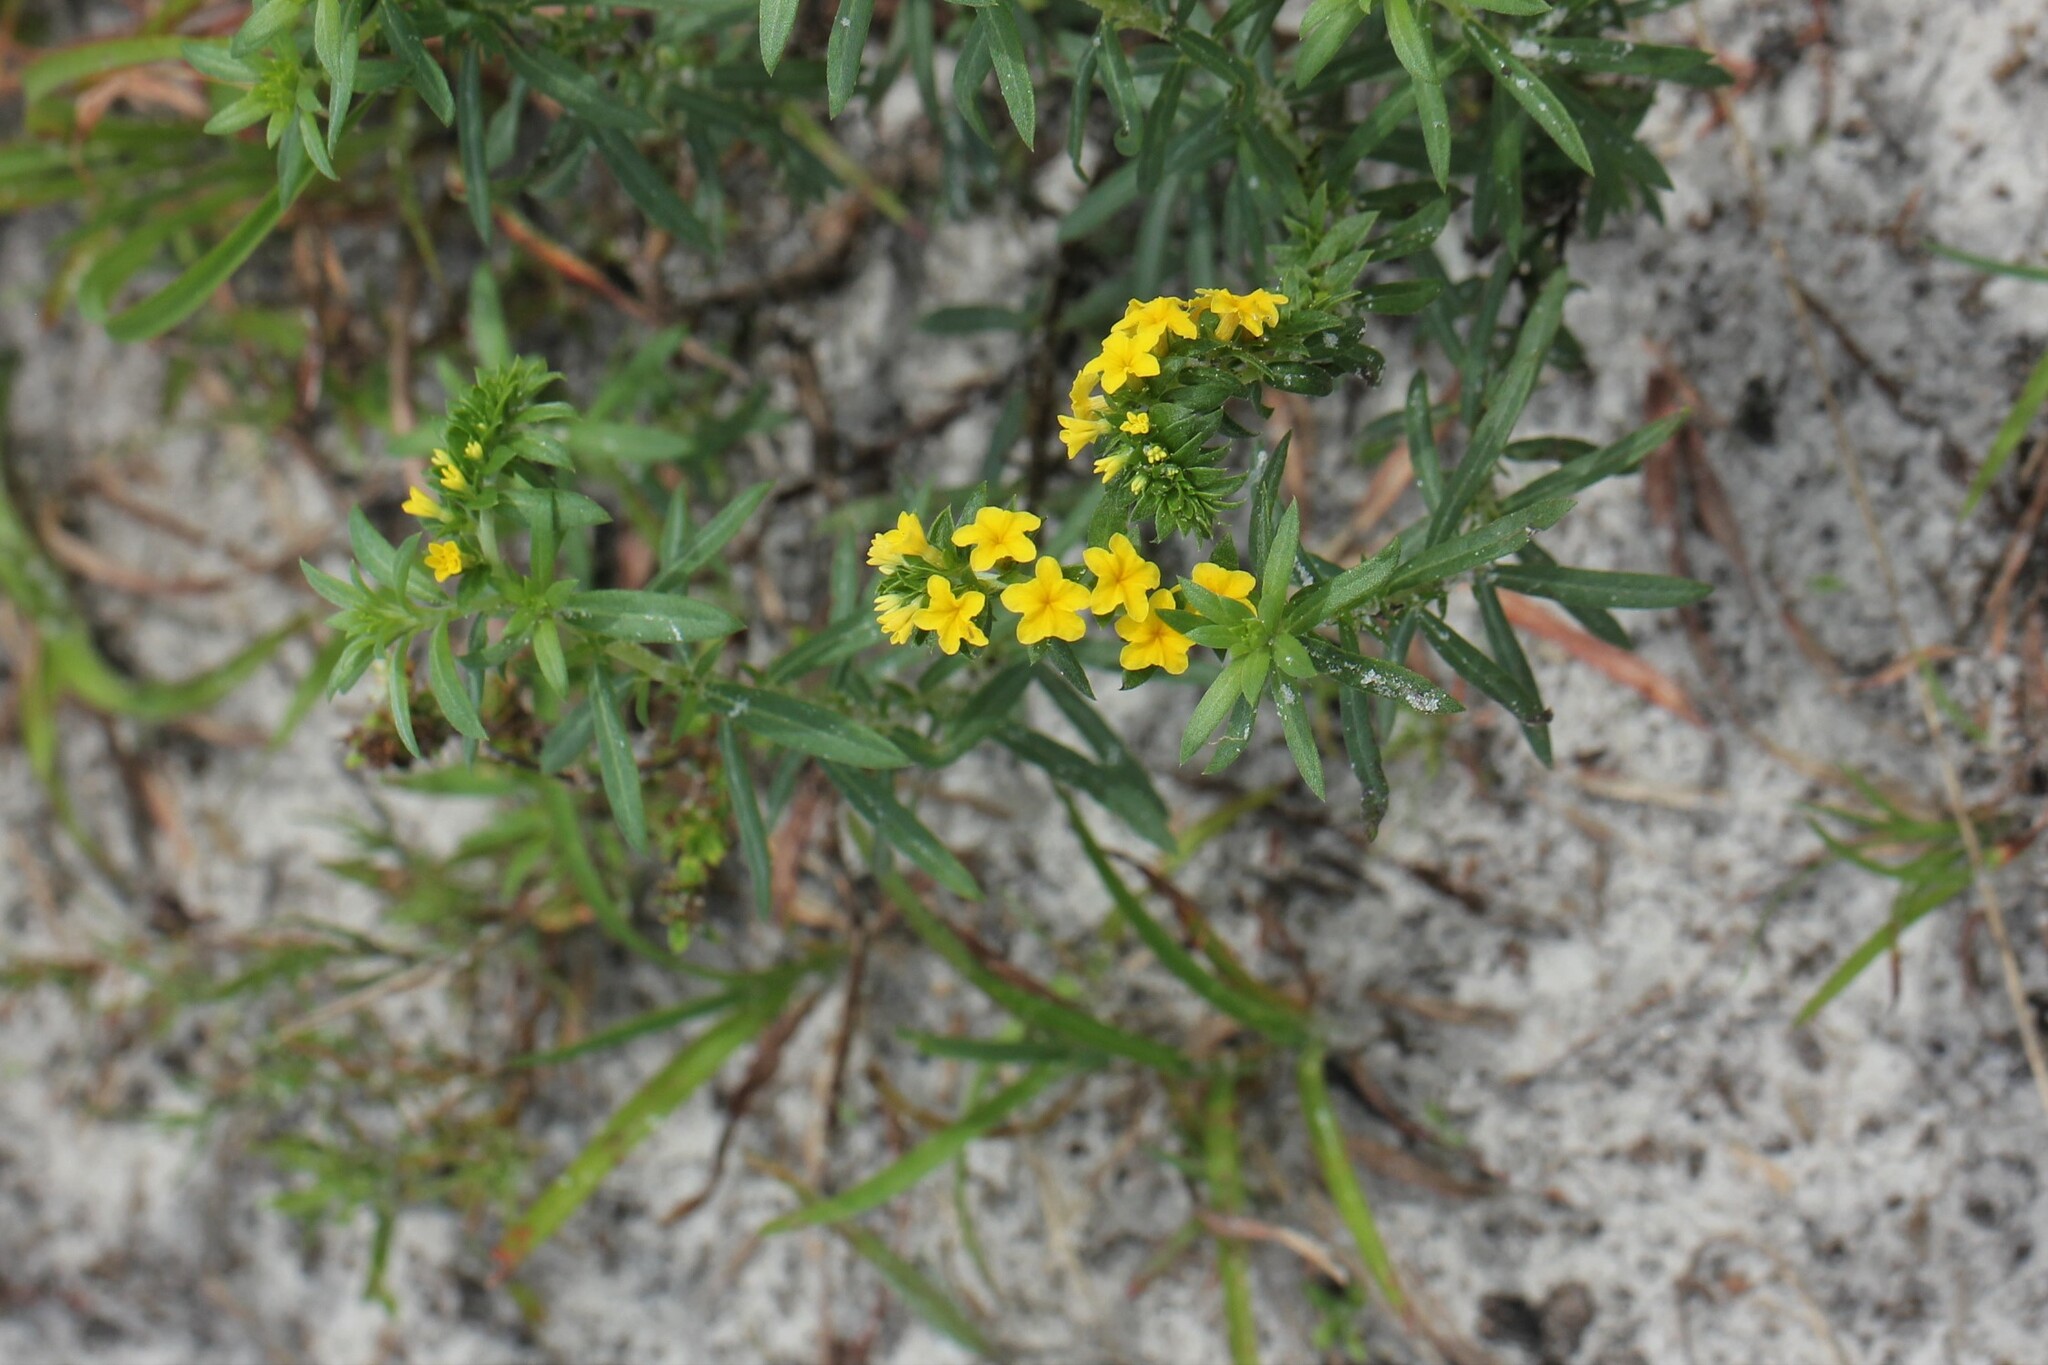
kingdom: Plantae
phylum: Tracheophyta
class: Magnoliopsida
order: Boraginales
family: Heliotropiaceae
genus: Euploca
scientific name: Euploca polyphylla
